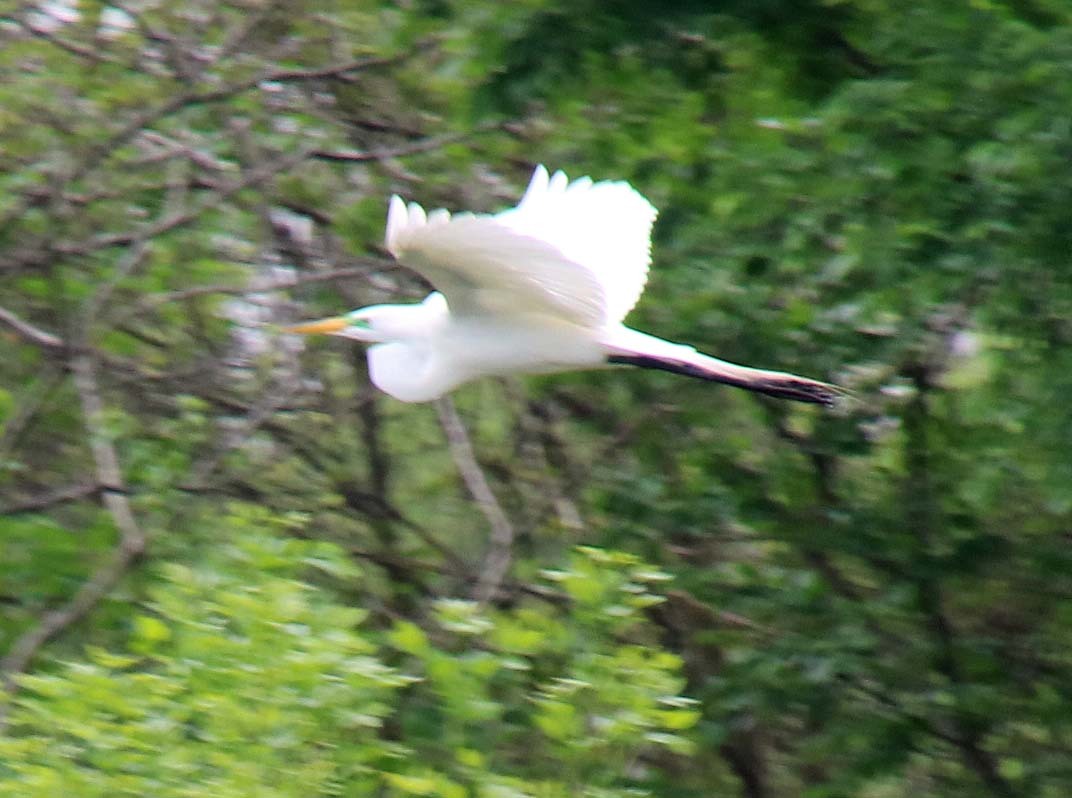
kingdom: Animalia
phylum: Chordata
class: Aves
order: Pelecaniformes
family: Ardeidae
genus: Ardea
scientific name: Ardea alba
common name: Great egret
